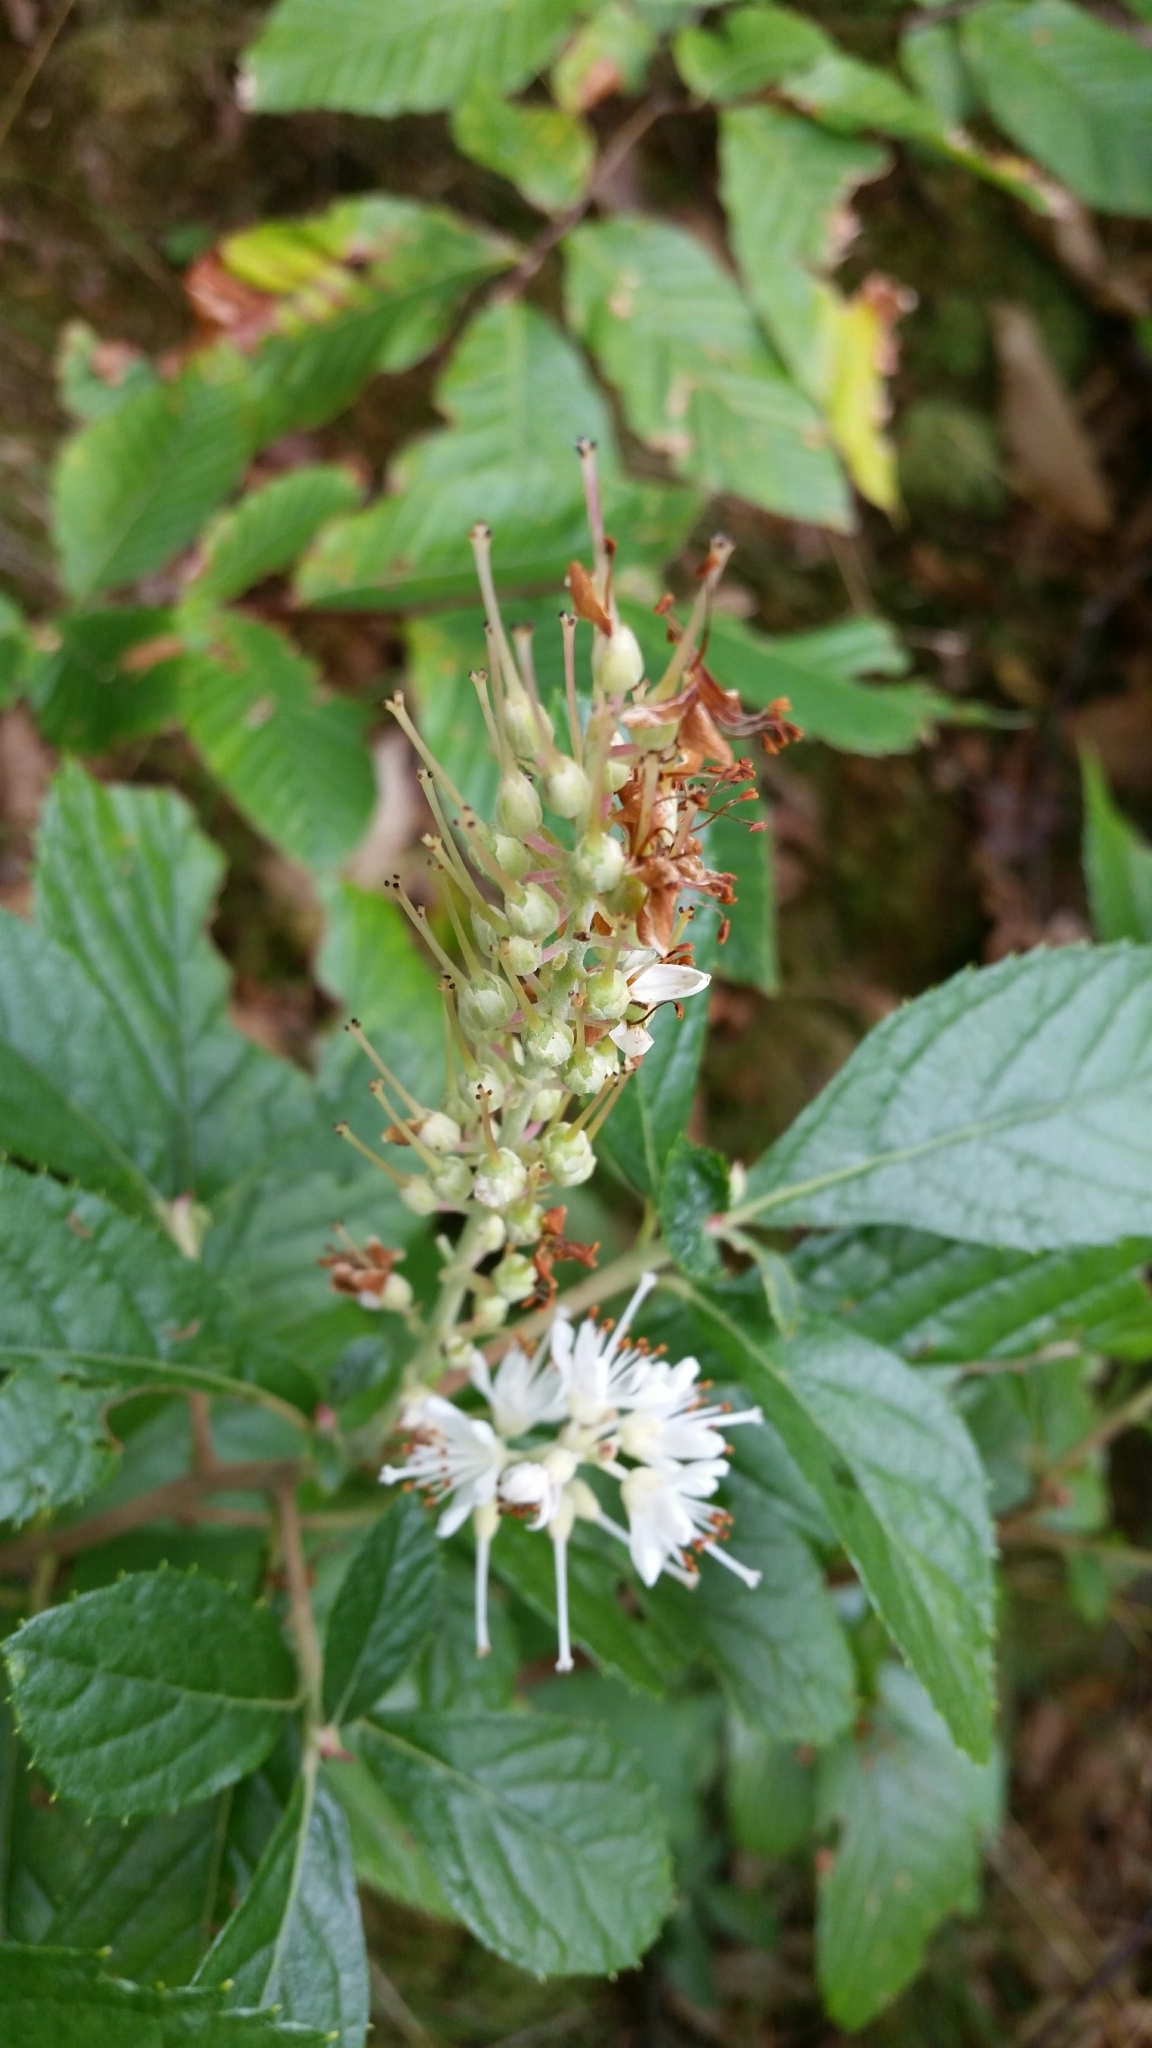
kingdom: Plantae
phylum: Tracheophyta
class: Magnoliopsida
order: Ericales
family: Clethraceae
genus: Clethra
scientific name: Clethra alnifolia
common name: Sweet pepperbush
